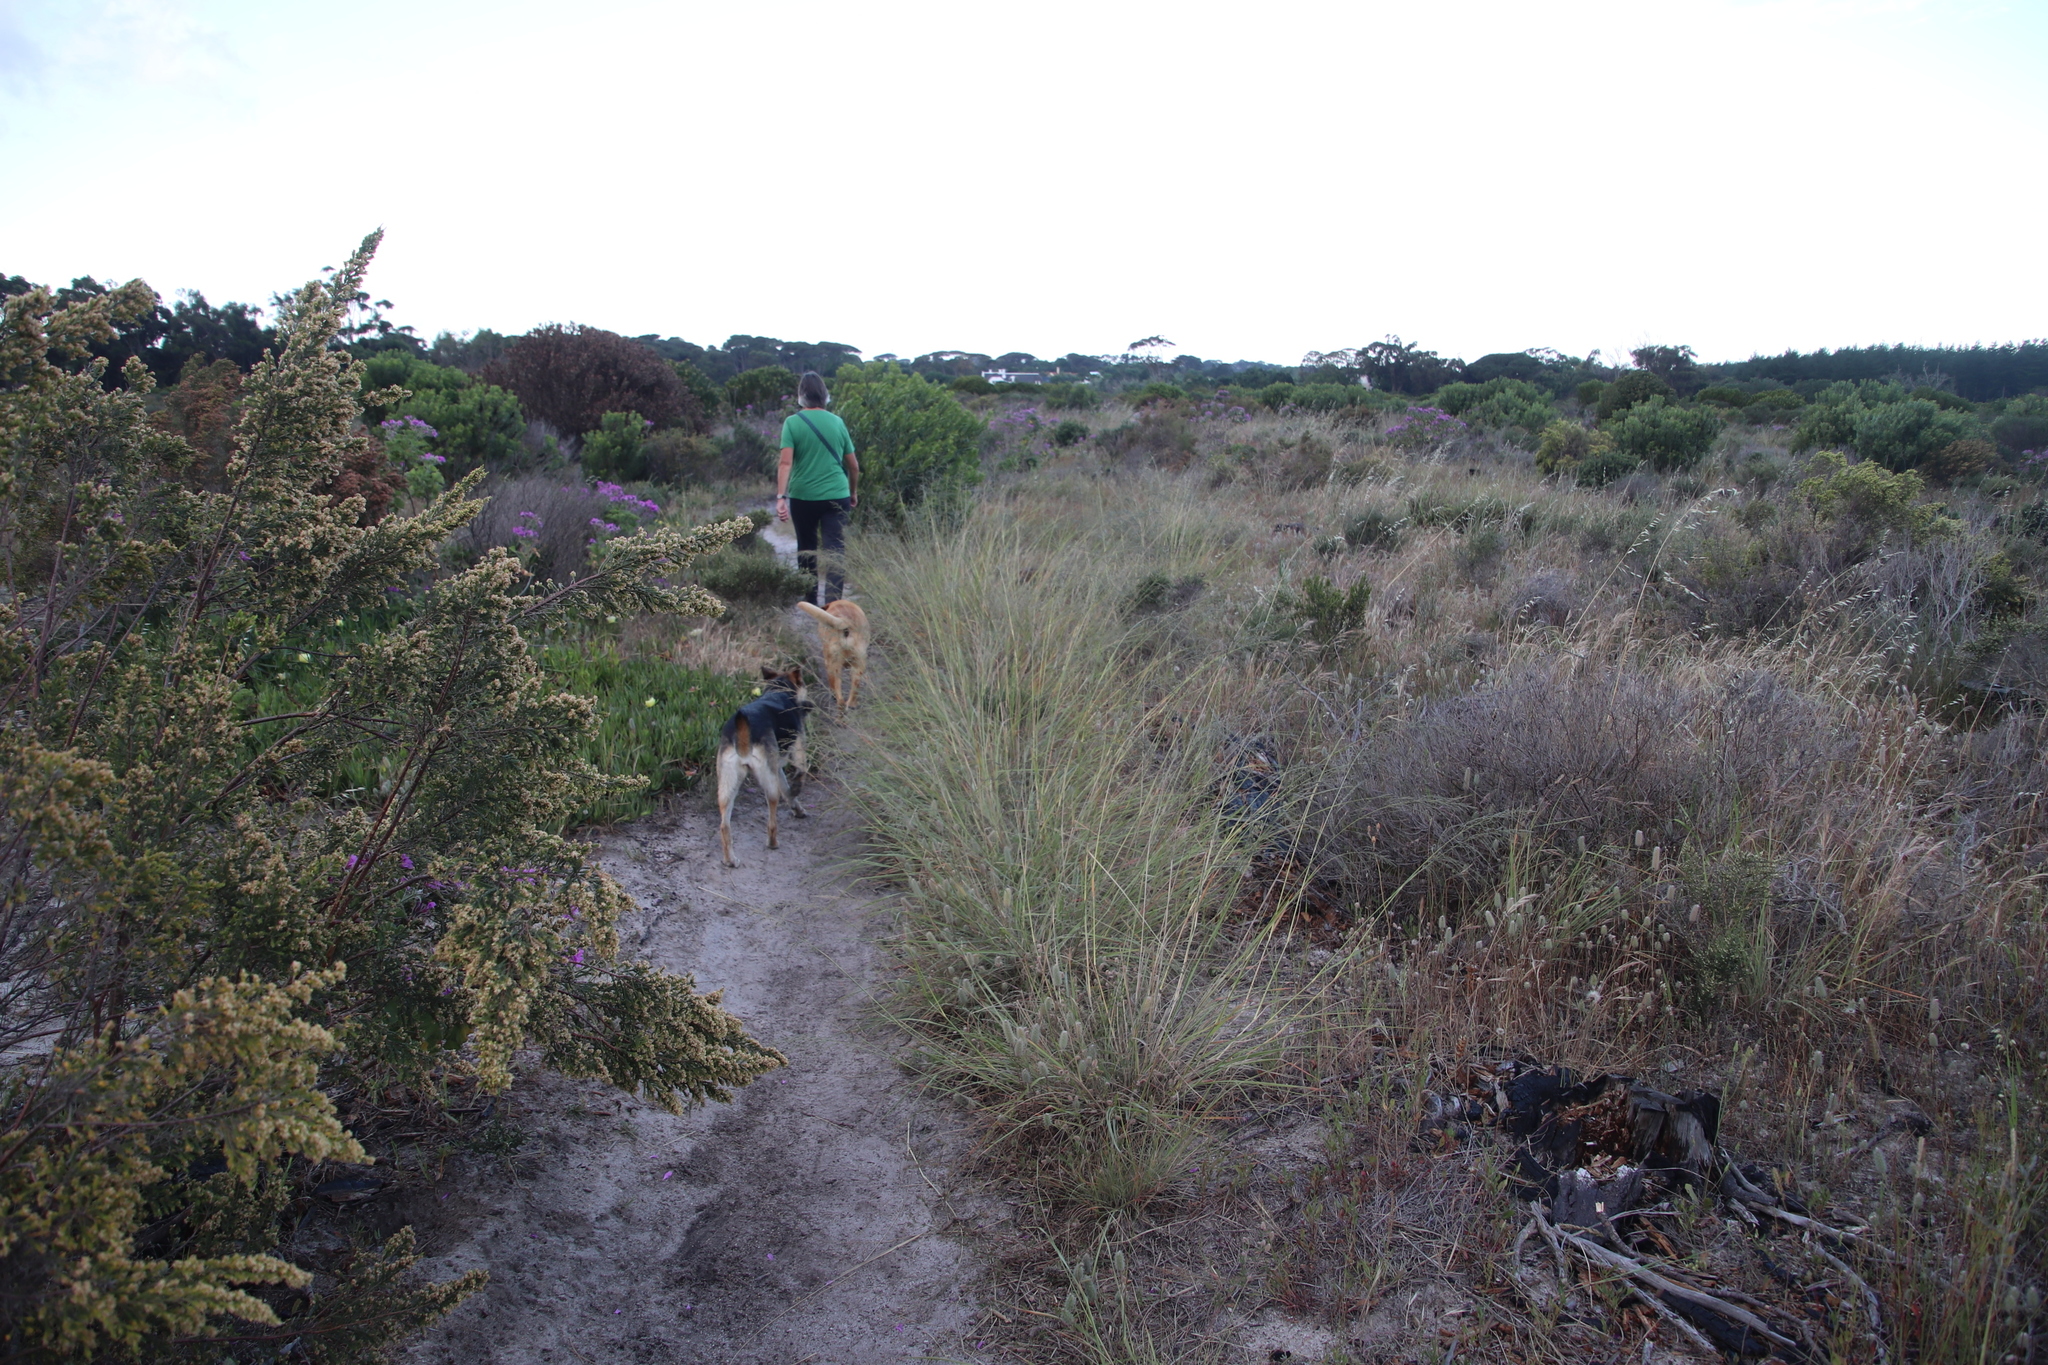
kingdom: Plantae
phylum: Tracheophyta
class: Liliopsida
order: Poales
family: Poaceae
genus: Eragrostis
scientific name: Eragrostis curvula
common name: African love-grass
